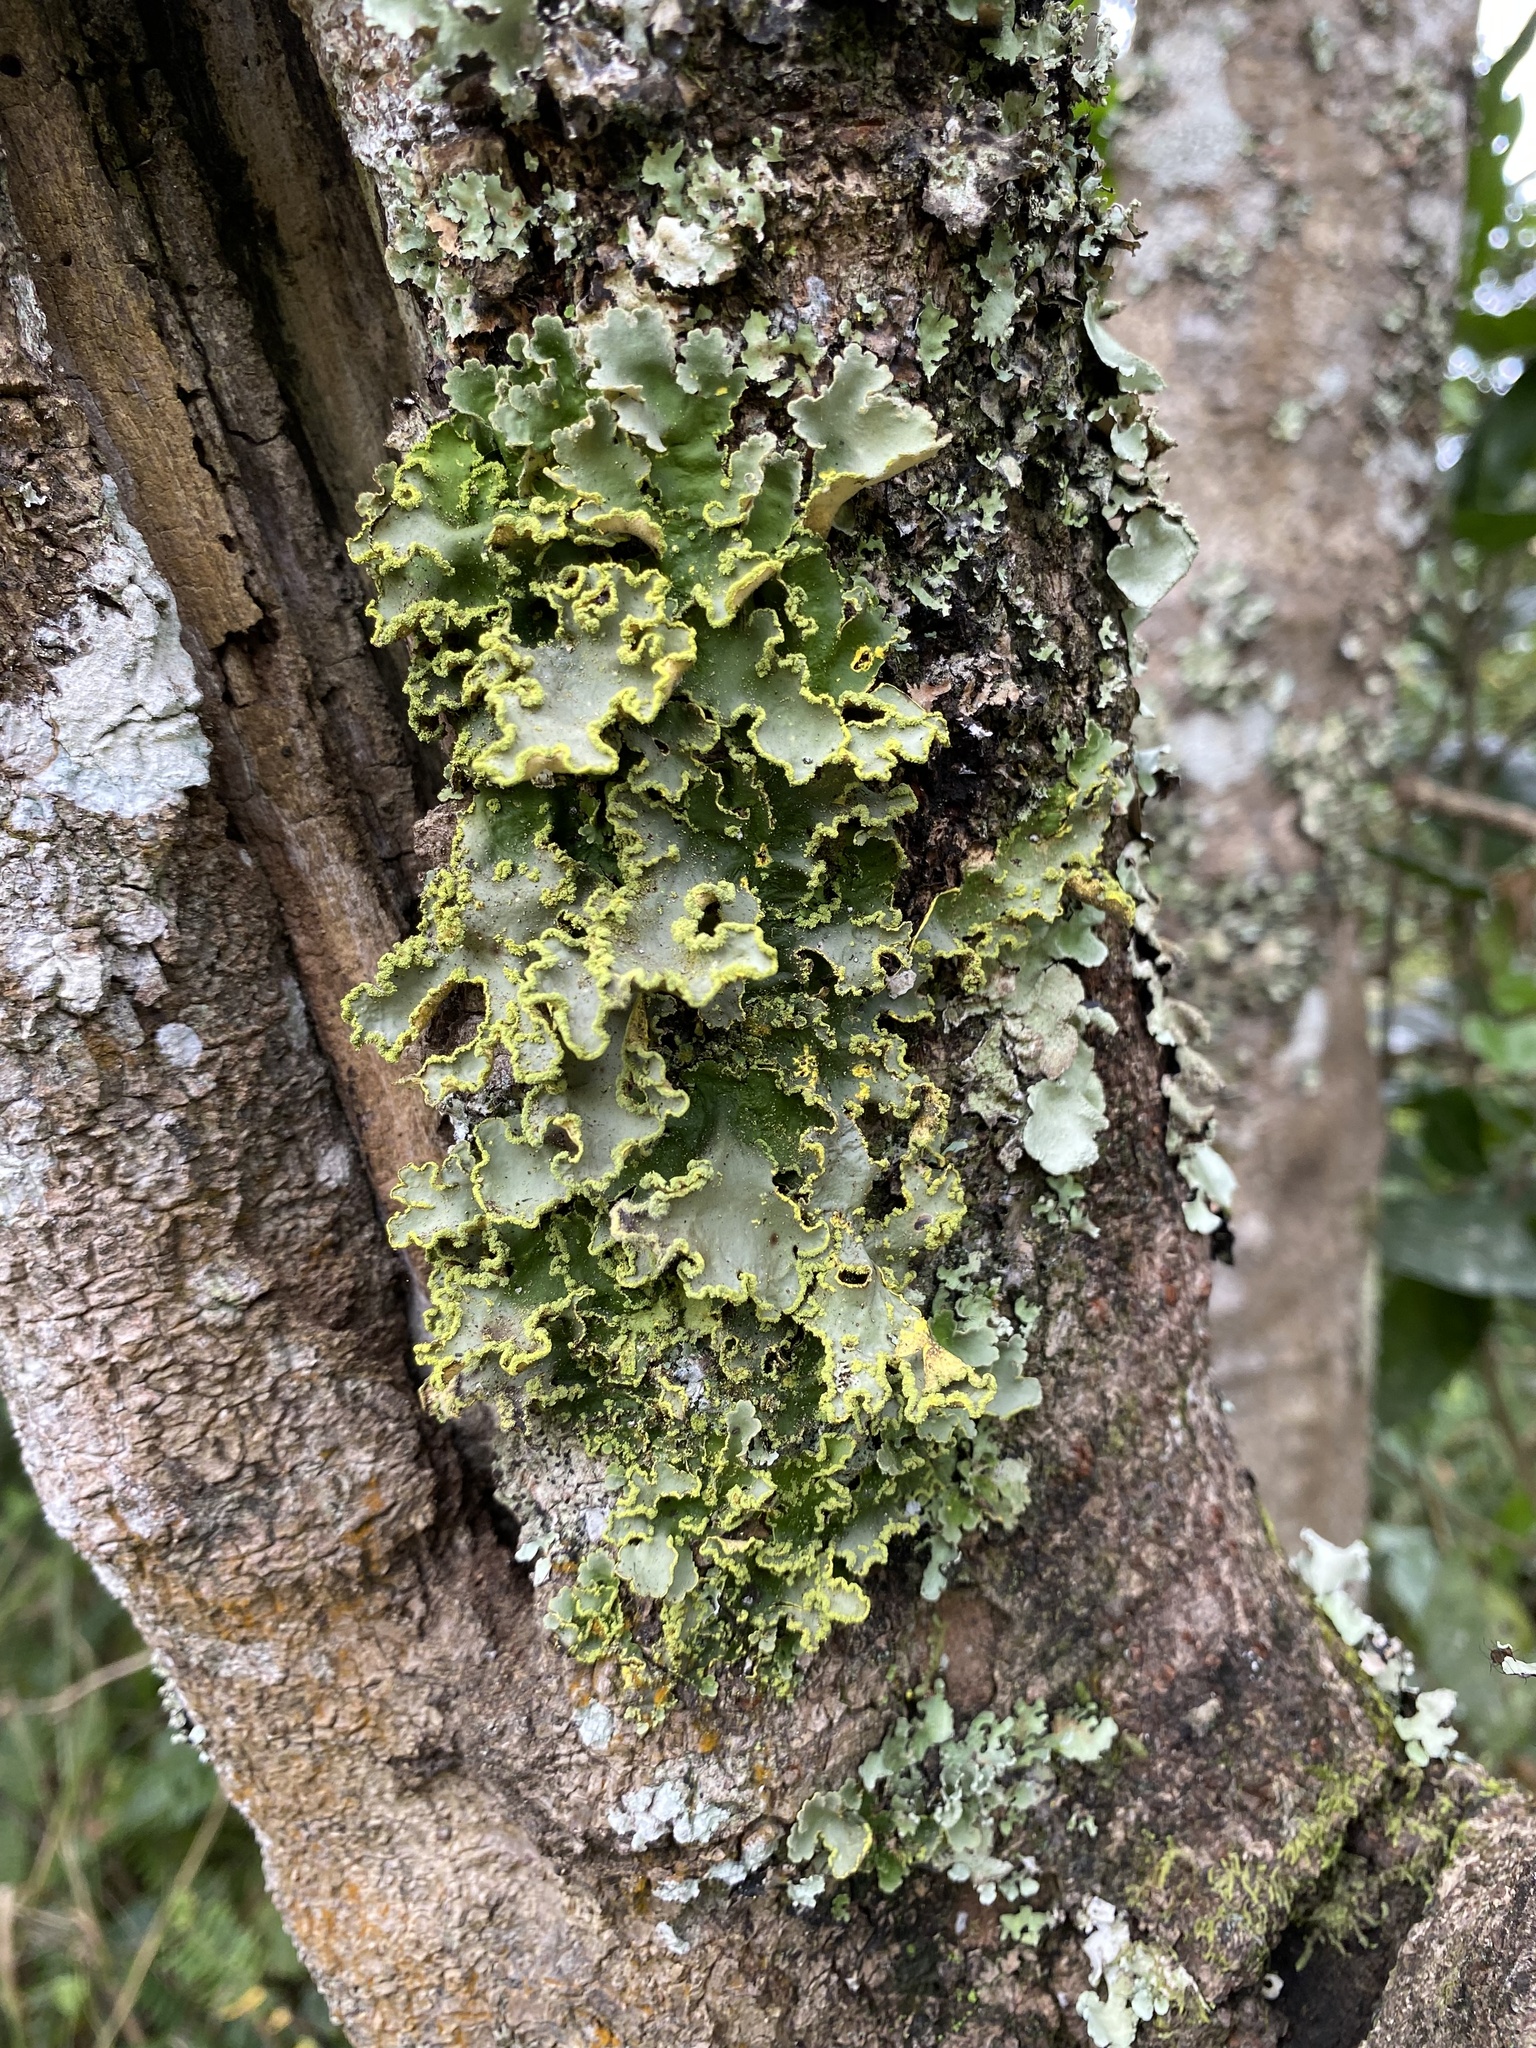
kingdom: Fungi
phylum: Ascomycota
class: Lecanoromycetes
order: Peltigerales
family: Lobariaceae
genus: Pseudocyphellaria
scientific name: Pseudocyphellaria aurata
